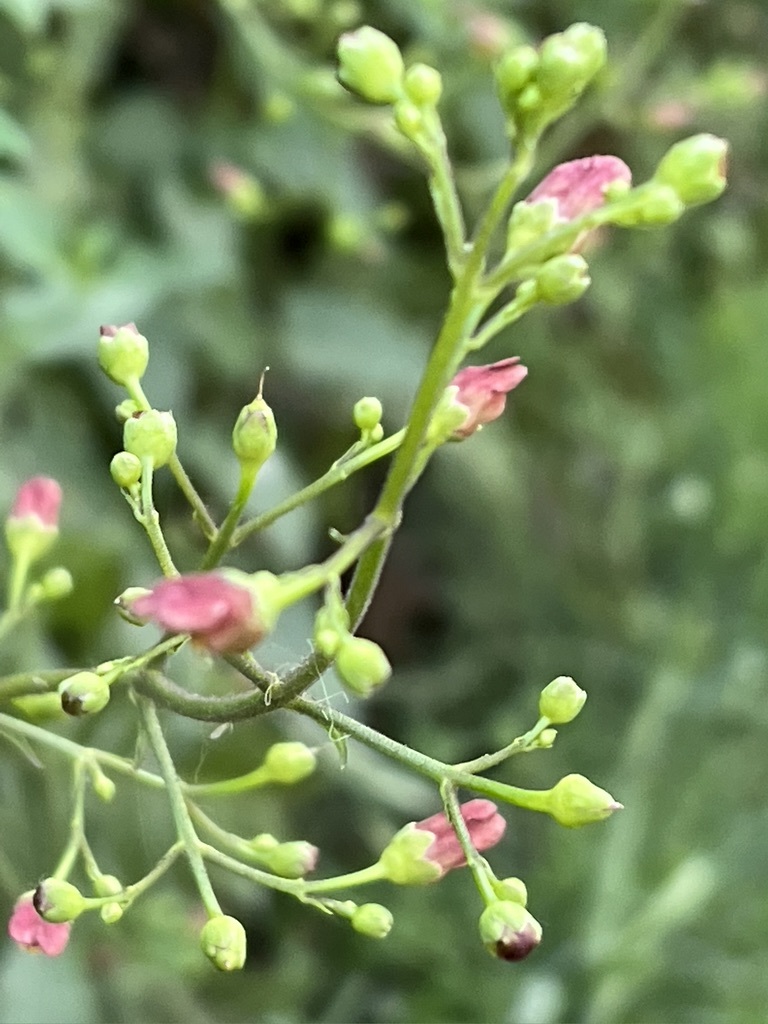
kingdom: Plantae
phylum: Tracheophyta
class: Magnoliopsida
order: Lamiales
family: Scrophulariaceae
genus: Scrophularia
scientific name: Scrophularia californica
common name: California figwort
